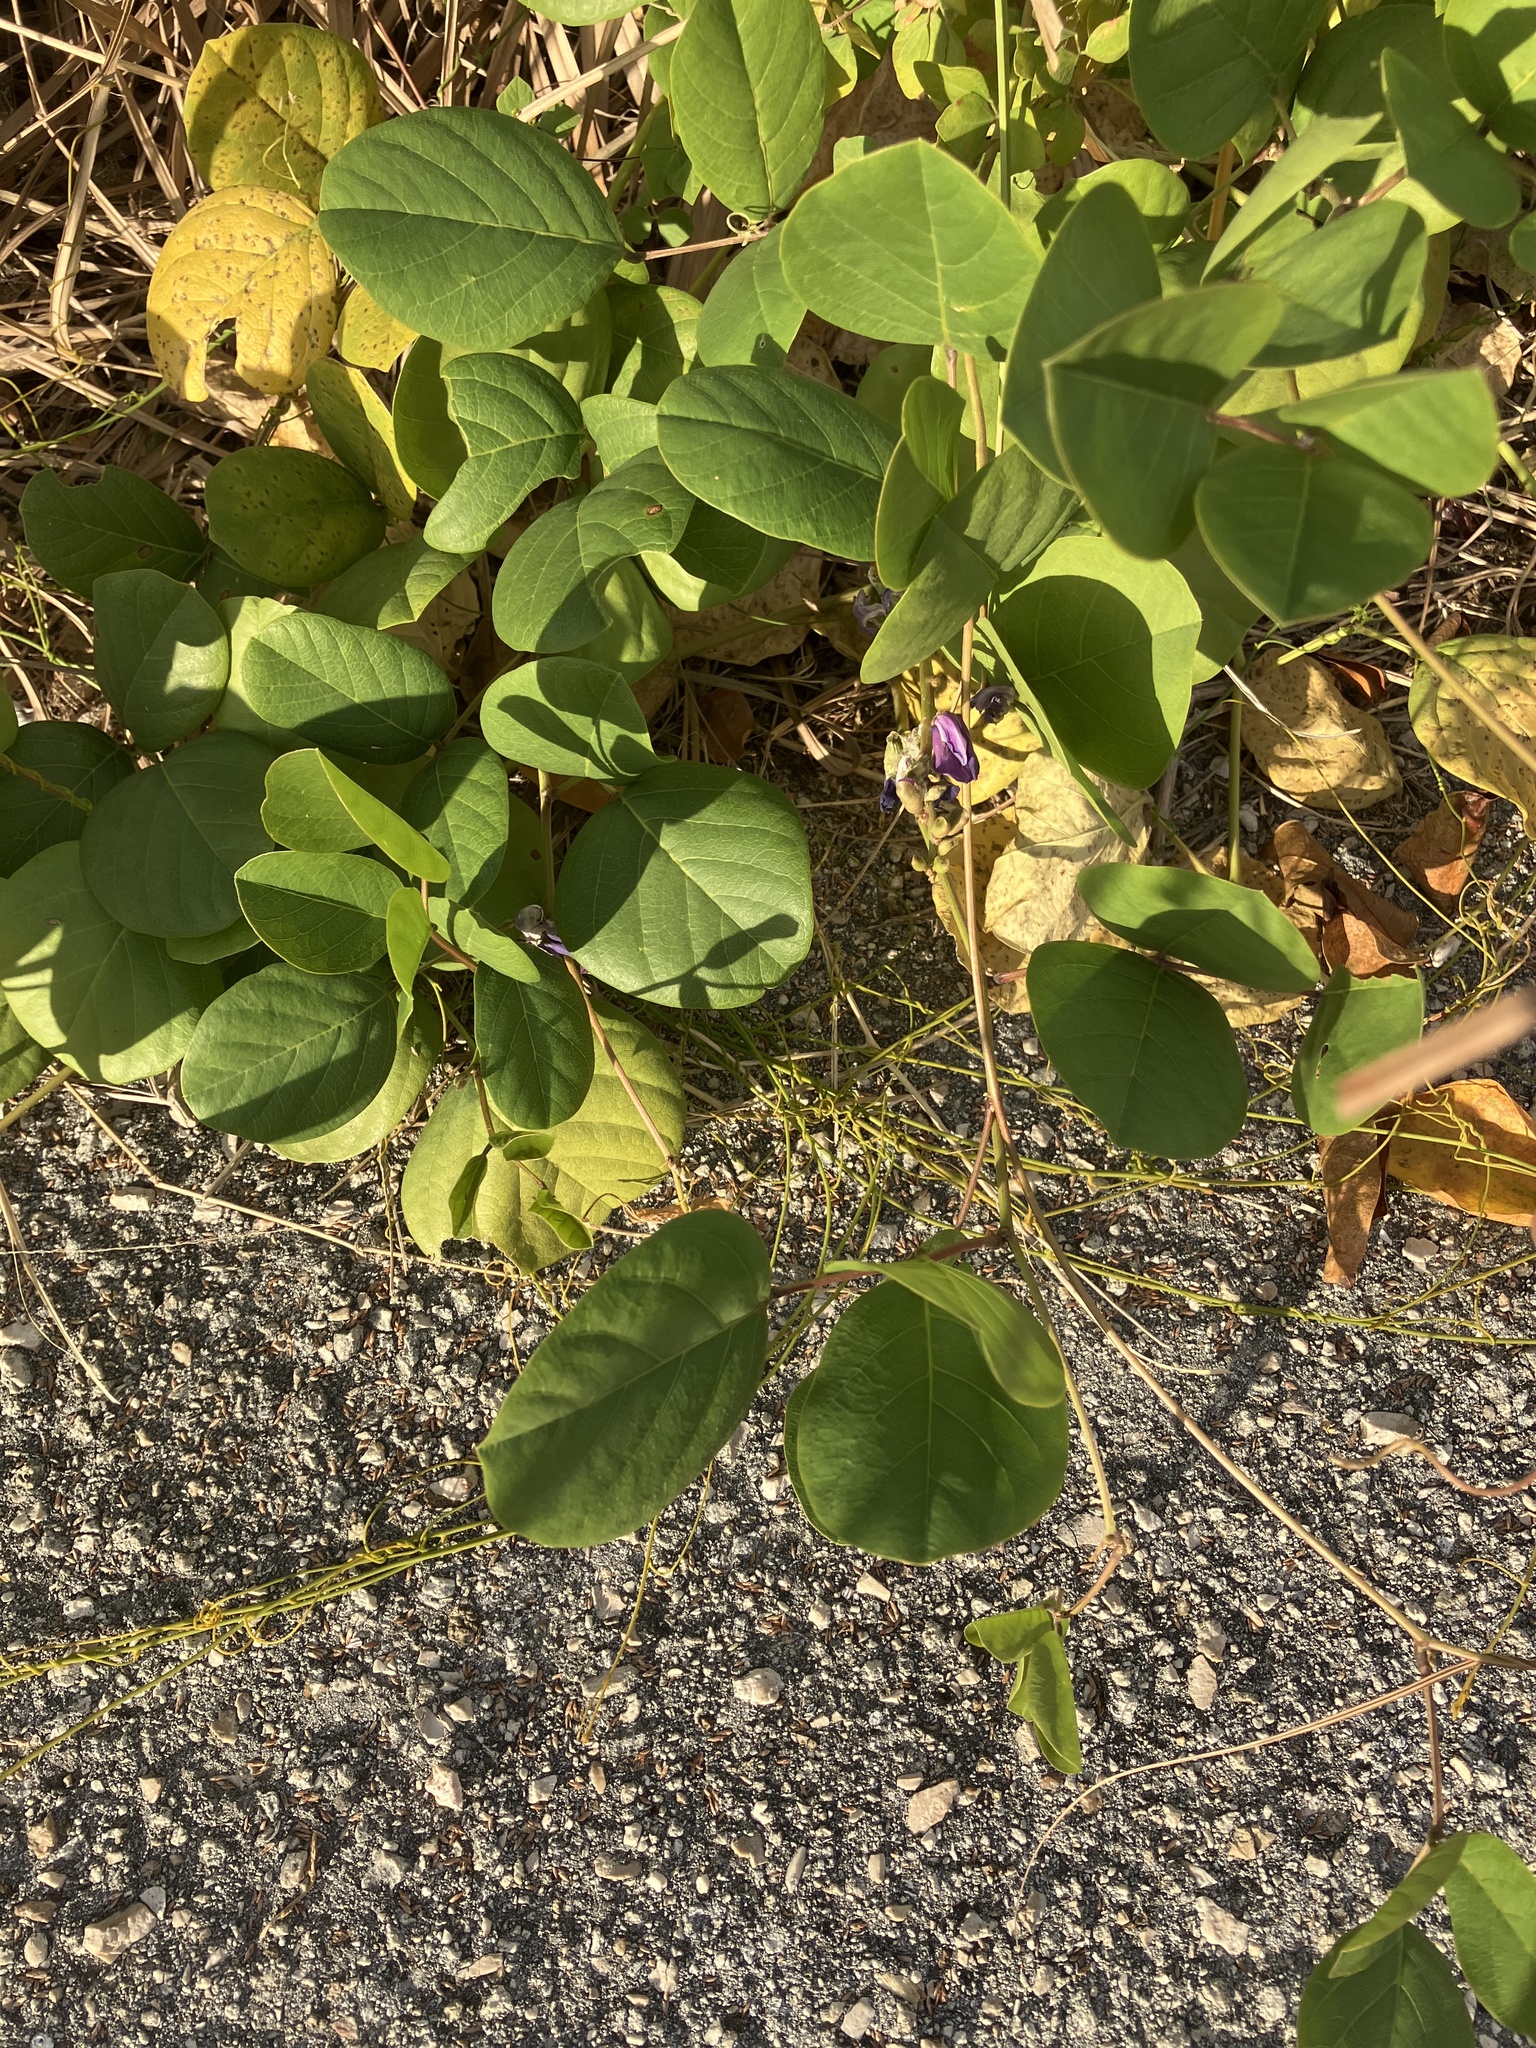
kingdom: Plantae
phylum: Tracheophyta
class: Magnoliopsida
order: Fabales
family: Fabaceae
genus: Canavalia
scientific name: Canavalia rosea
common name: Beach-bean
